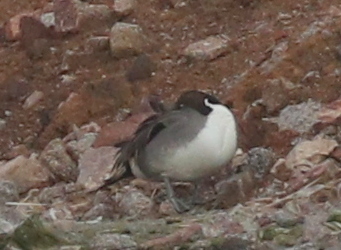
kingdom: Animalia
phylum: Chordata
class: Aves
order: Anseriformes
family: Anatidae
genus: Anas
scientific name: Anas acuta
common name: Northern pintail
